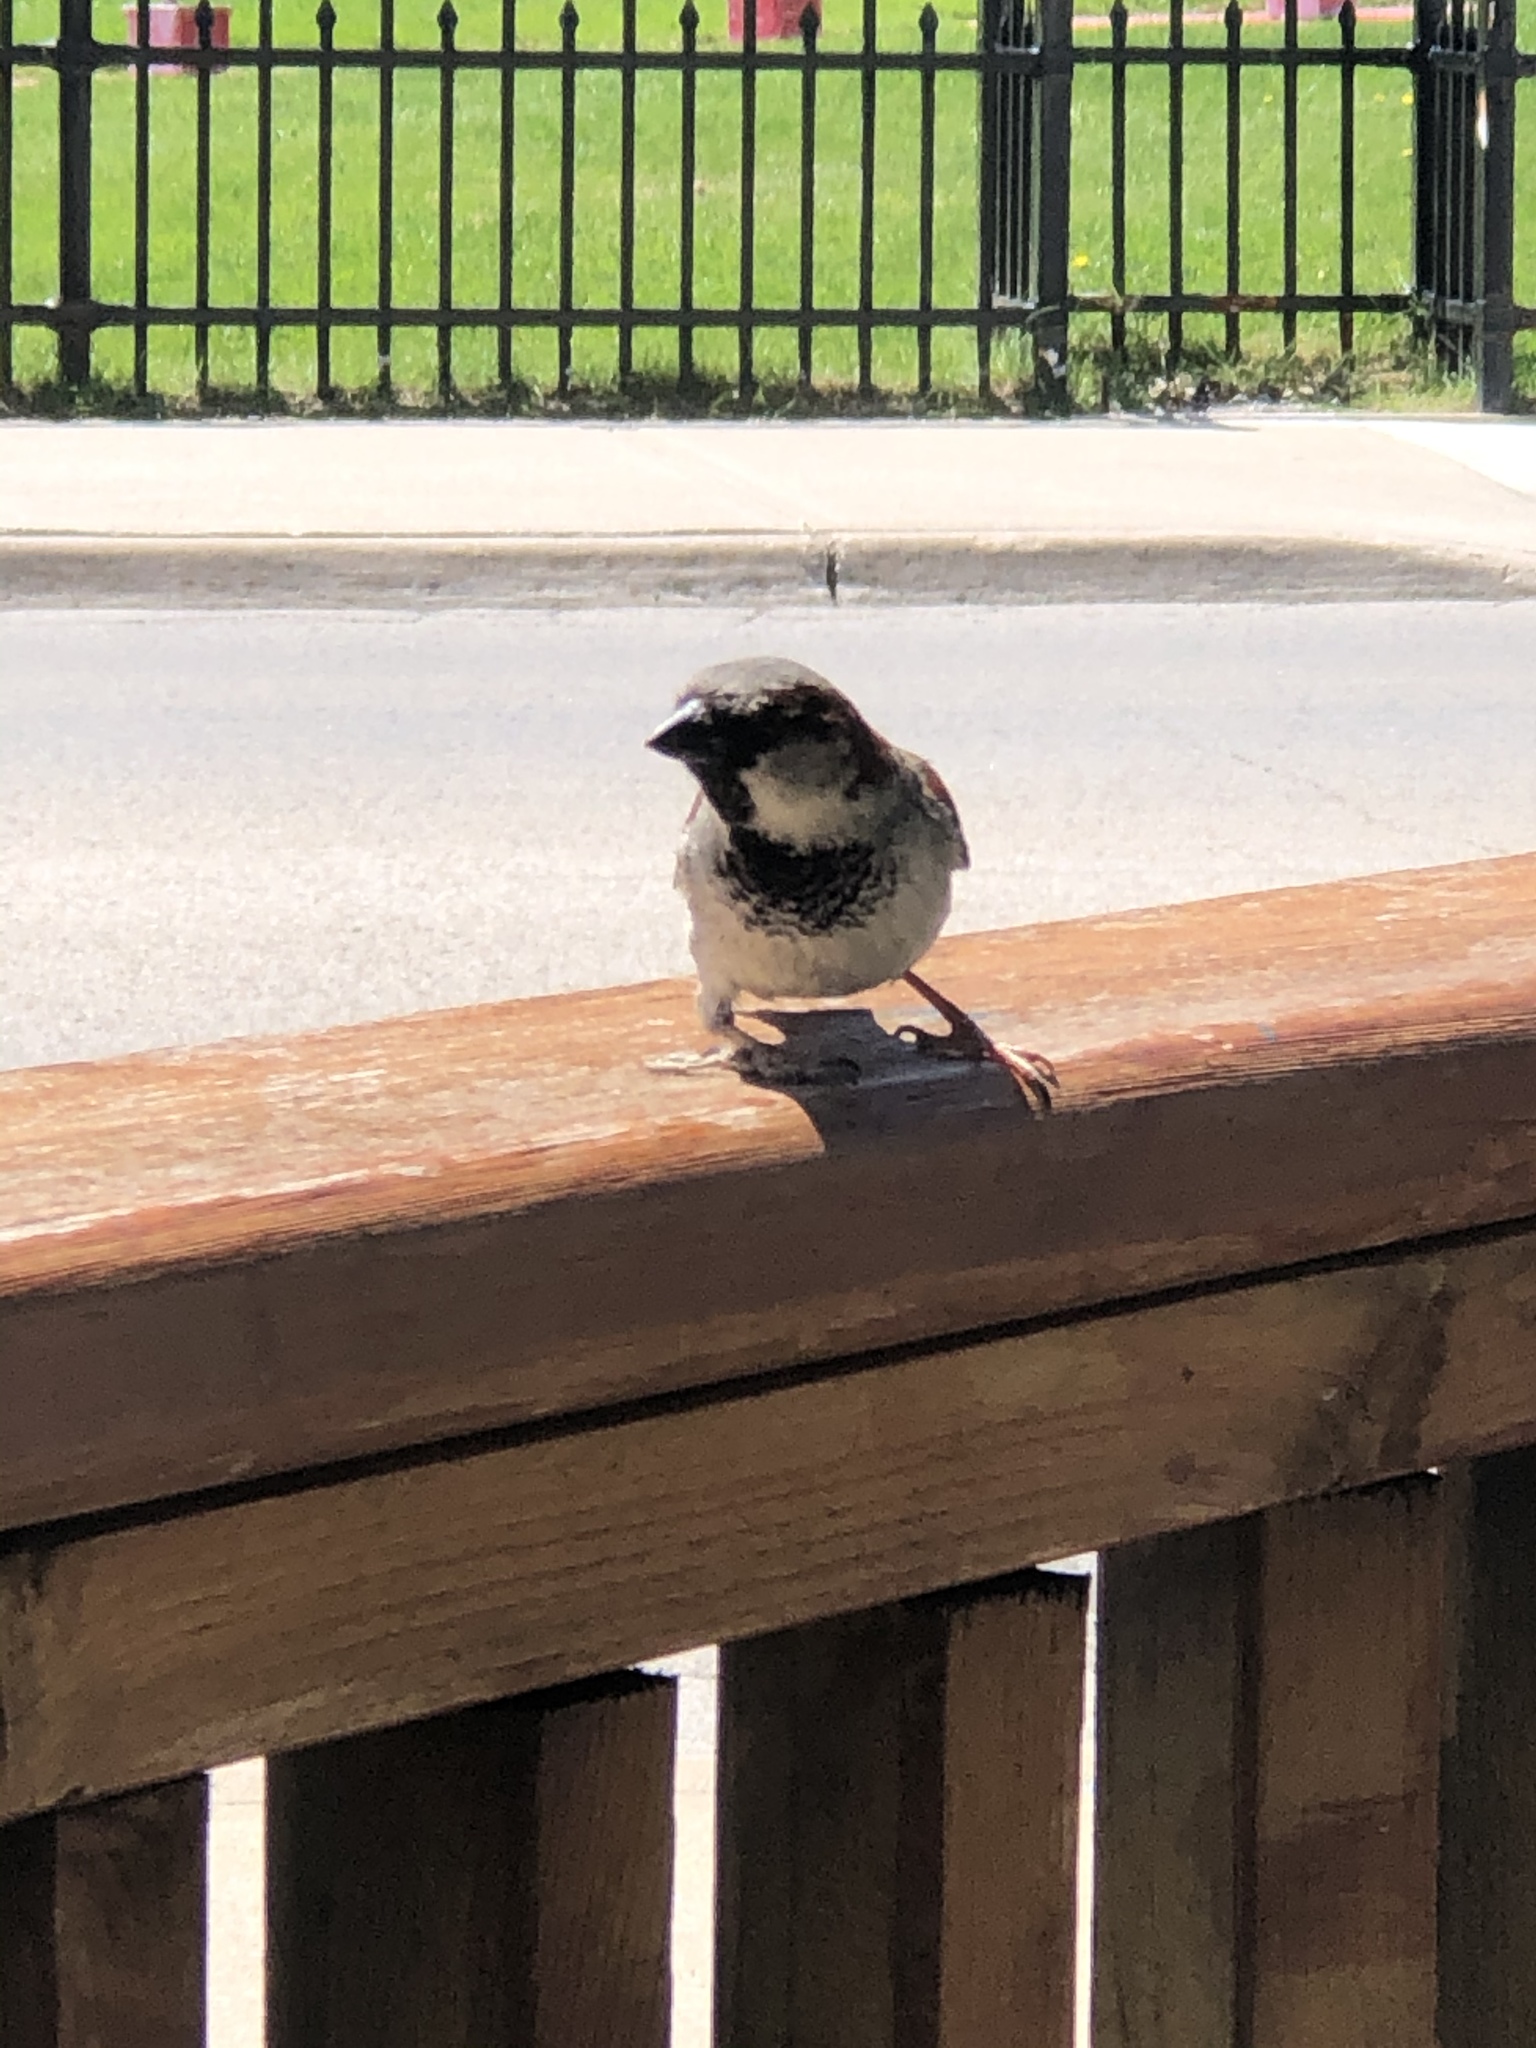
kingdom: Animalia
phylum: Chordata
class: Aves
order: Passeriformes
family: Passeridae
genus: Passer
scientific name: Passer domesticus
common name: House sparrow
